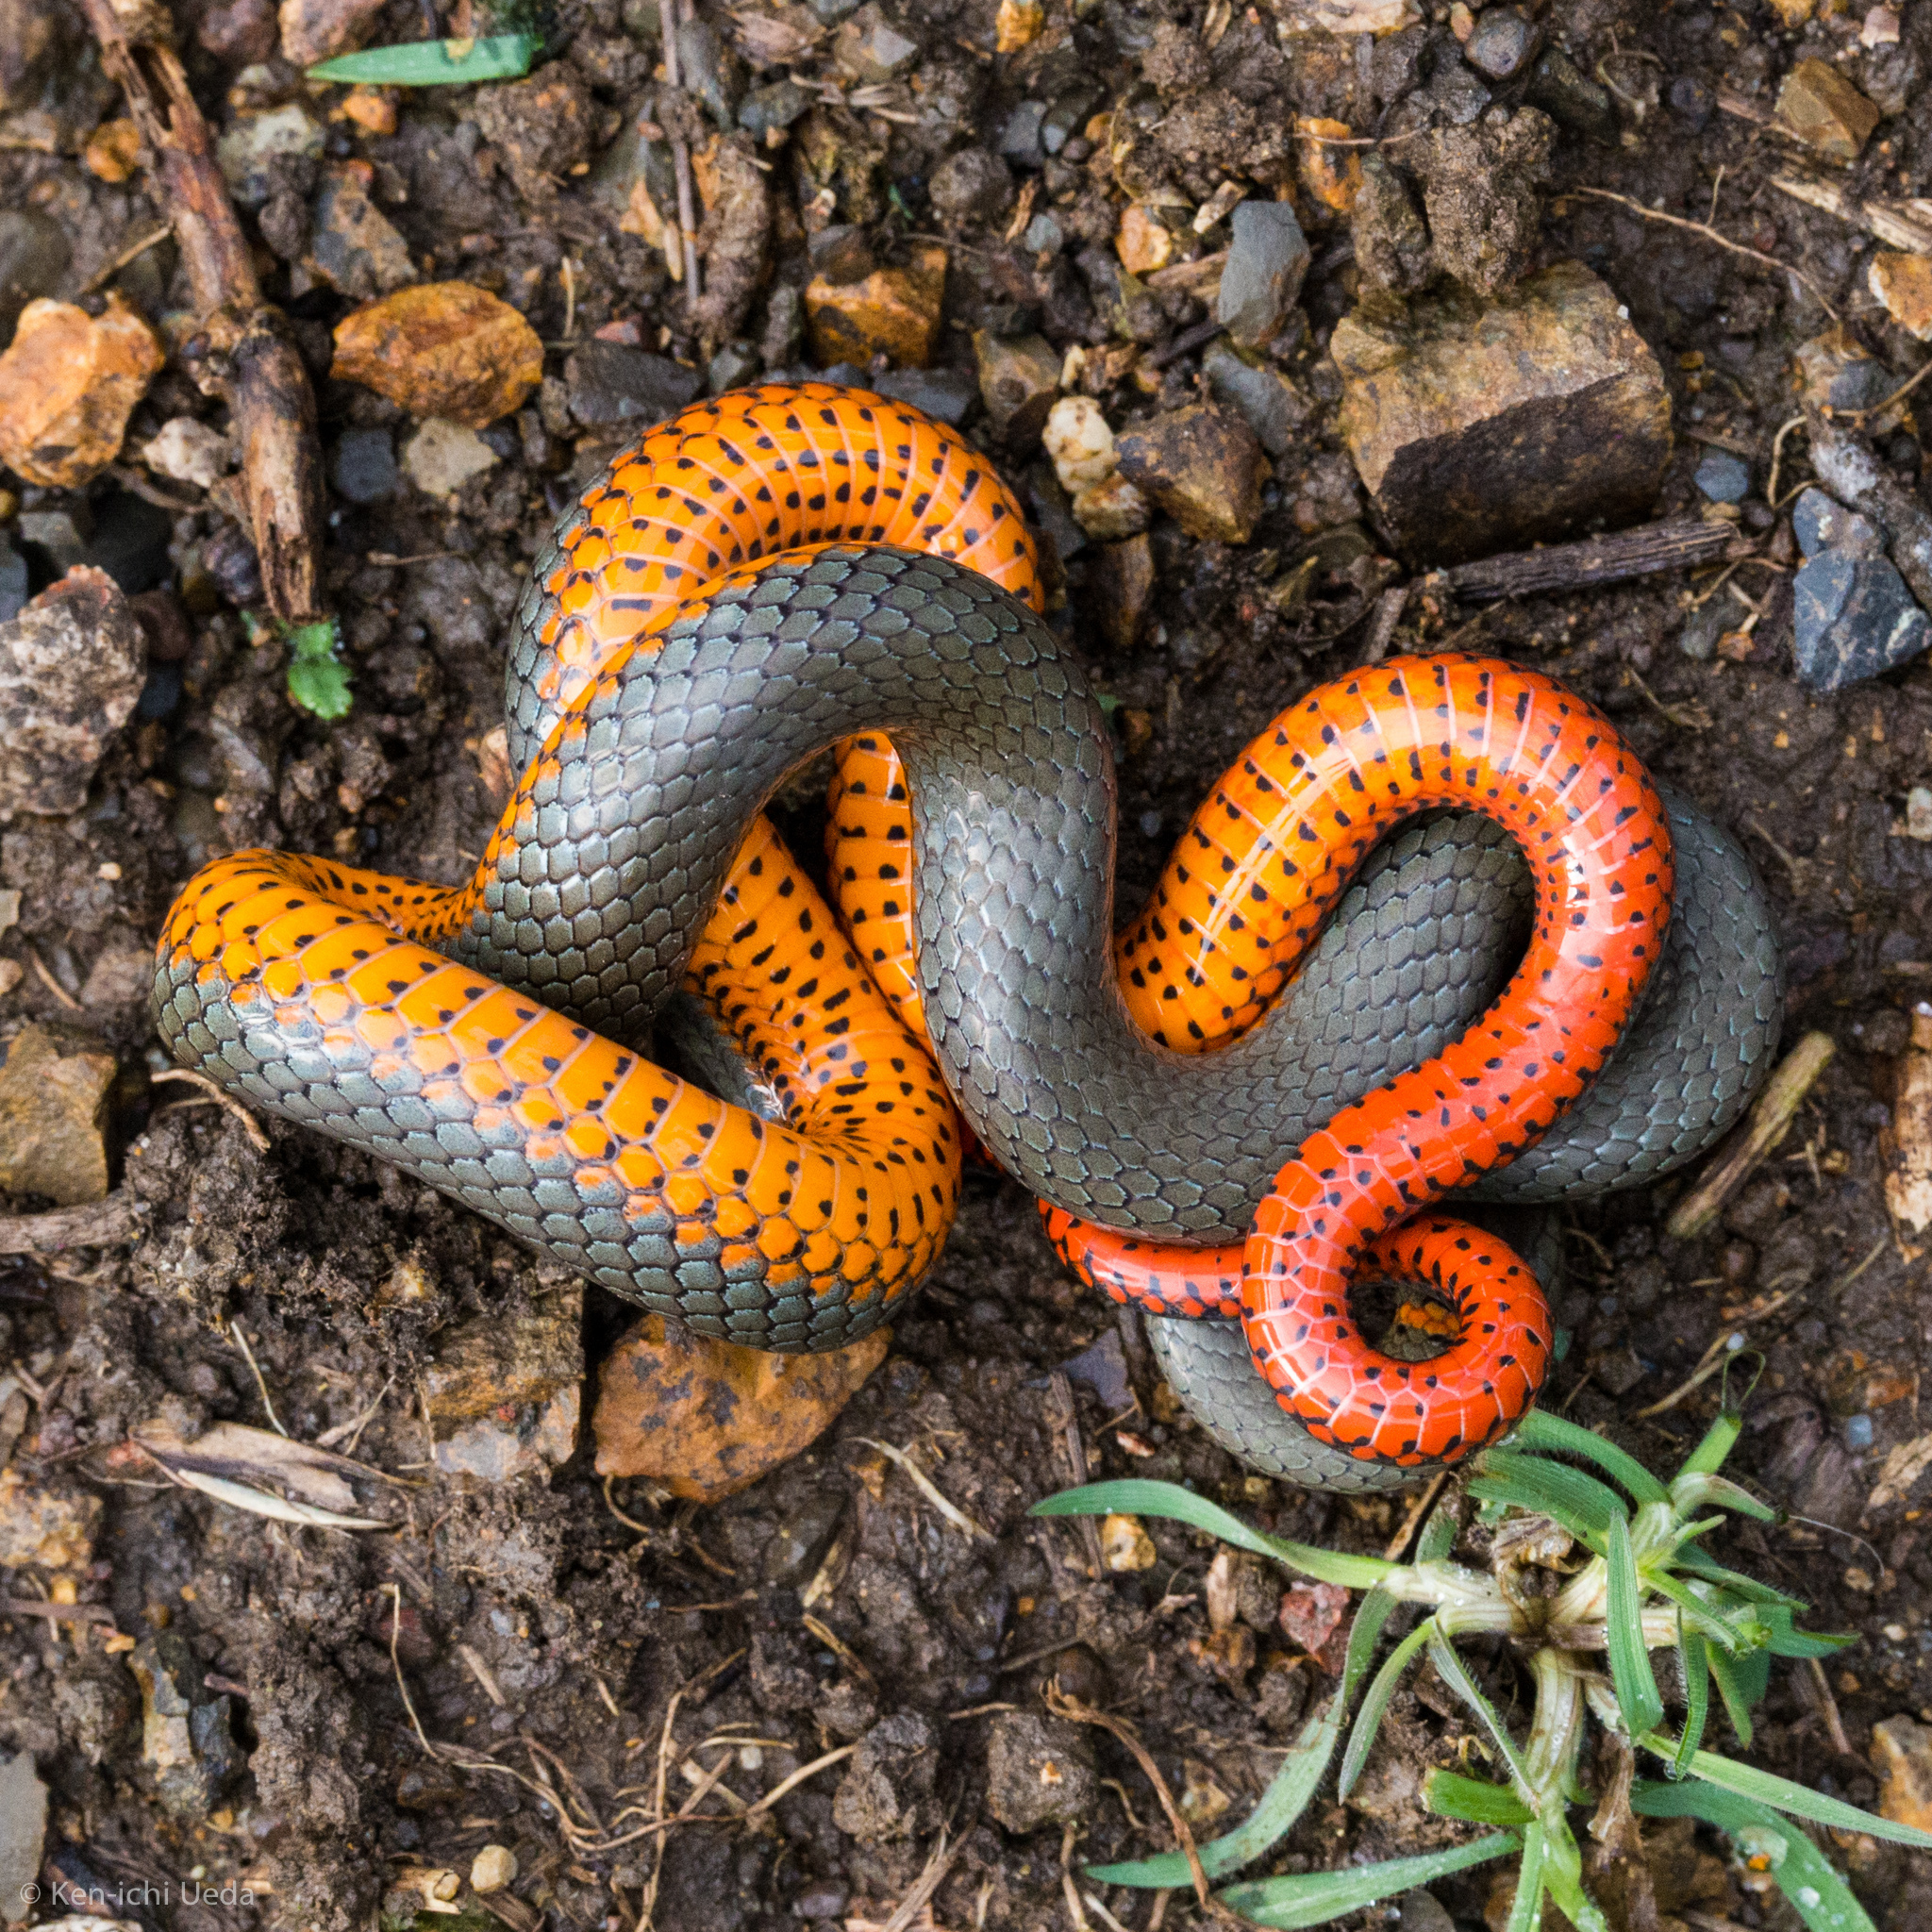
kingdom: Animalia
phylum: Chordata
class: Squamata
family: Colubridae
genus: Diadophis
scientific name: Diadophis punctatus
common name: Ringneck snake
